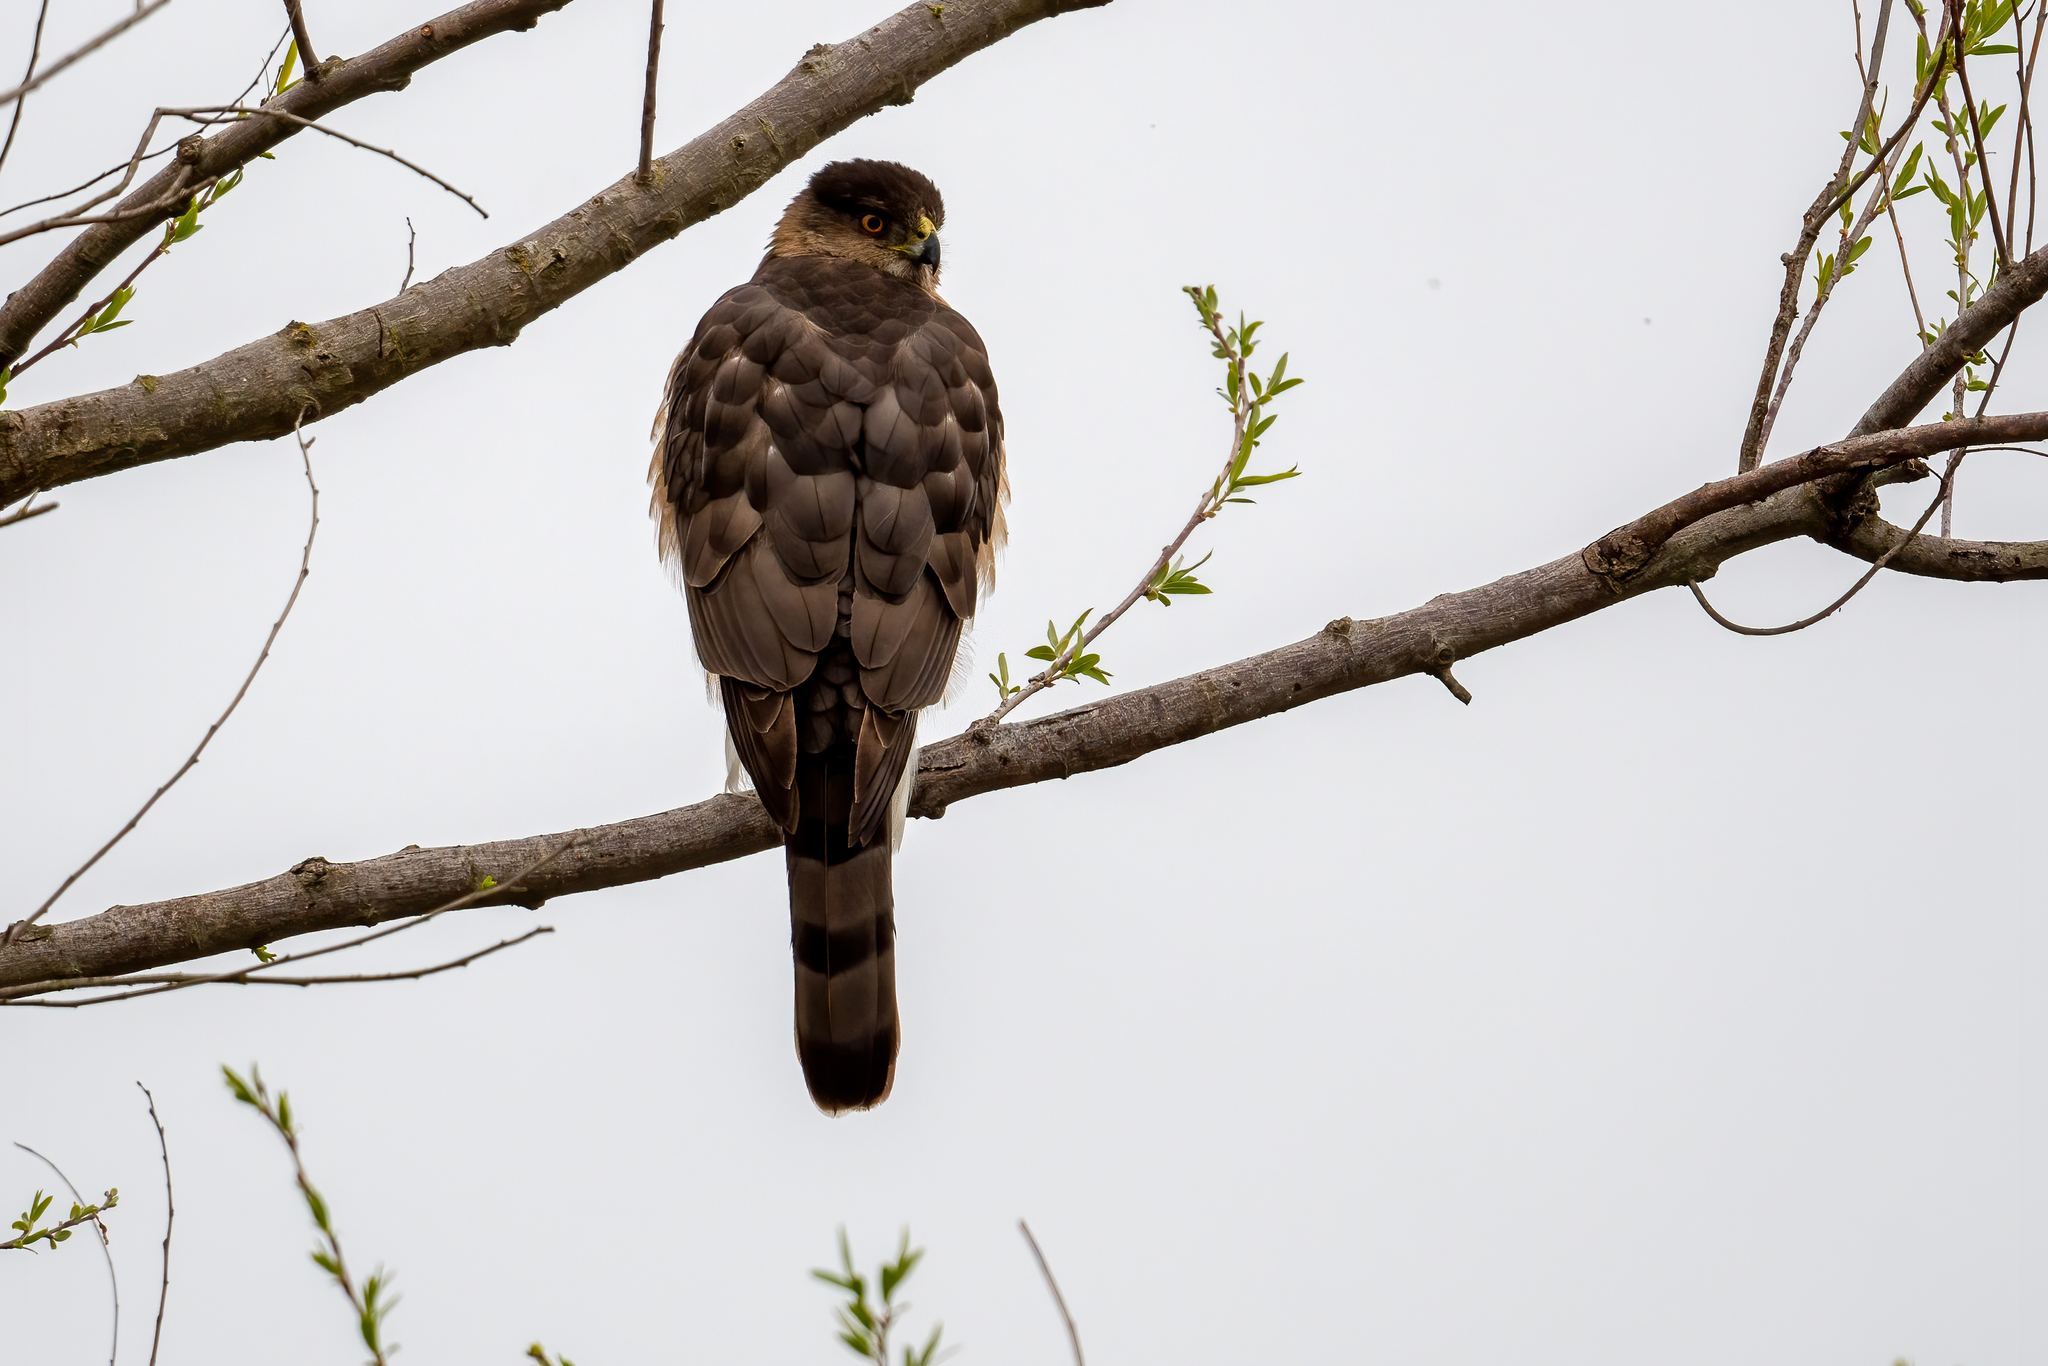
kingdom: Animalia
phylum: Chordata
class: Aves
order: Accipitriformes
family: Accipitridae
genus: Accipiter
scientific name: Accipiter cooperii
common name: Cooper's hawk
